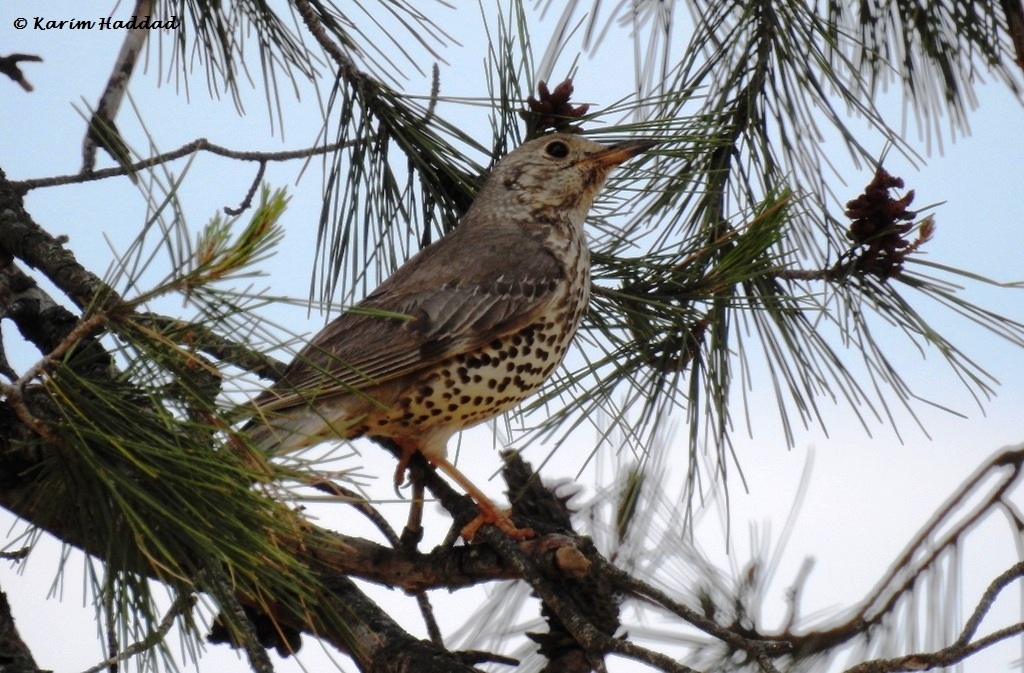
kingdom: Animalia
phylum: Chordata
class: Aves
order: Passeriformes
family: Turdidae
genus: Turdus
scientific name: Turdus viscivorus
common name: Mistle thrush
